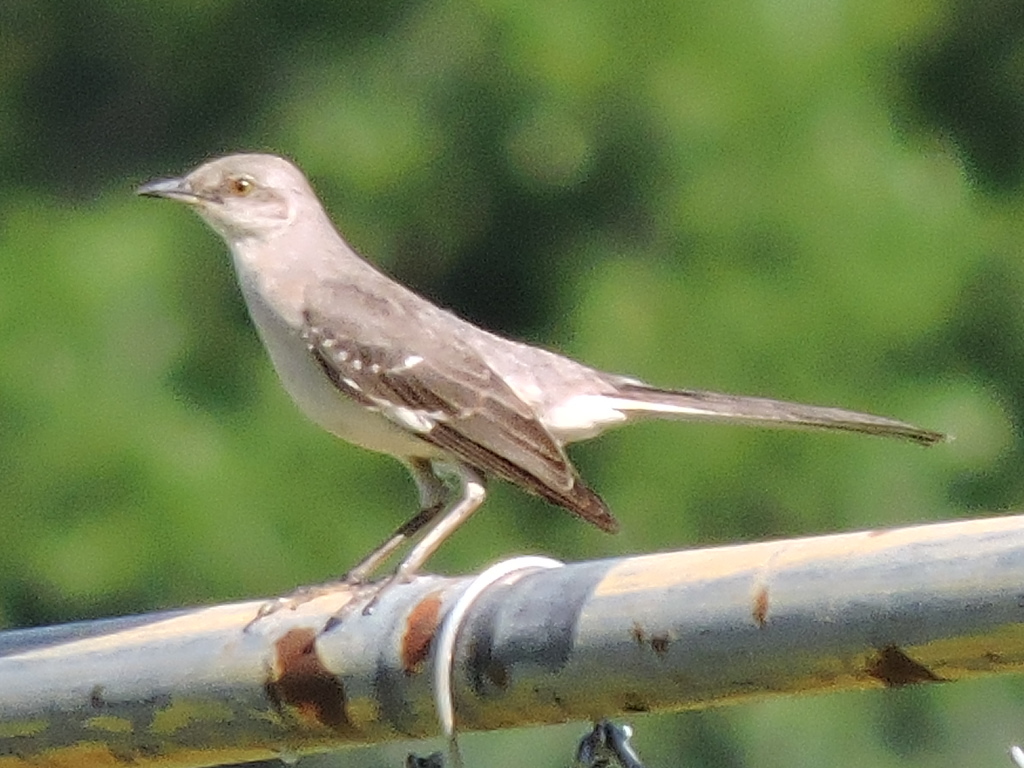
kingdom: Animalia
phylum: Chordata
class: Aves
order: Passeriformes
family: Mimidae
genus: Mimus
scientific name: Mimus polyglottos
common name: Northern mockingbird
